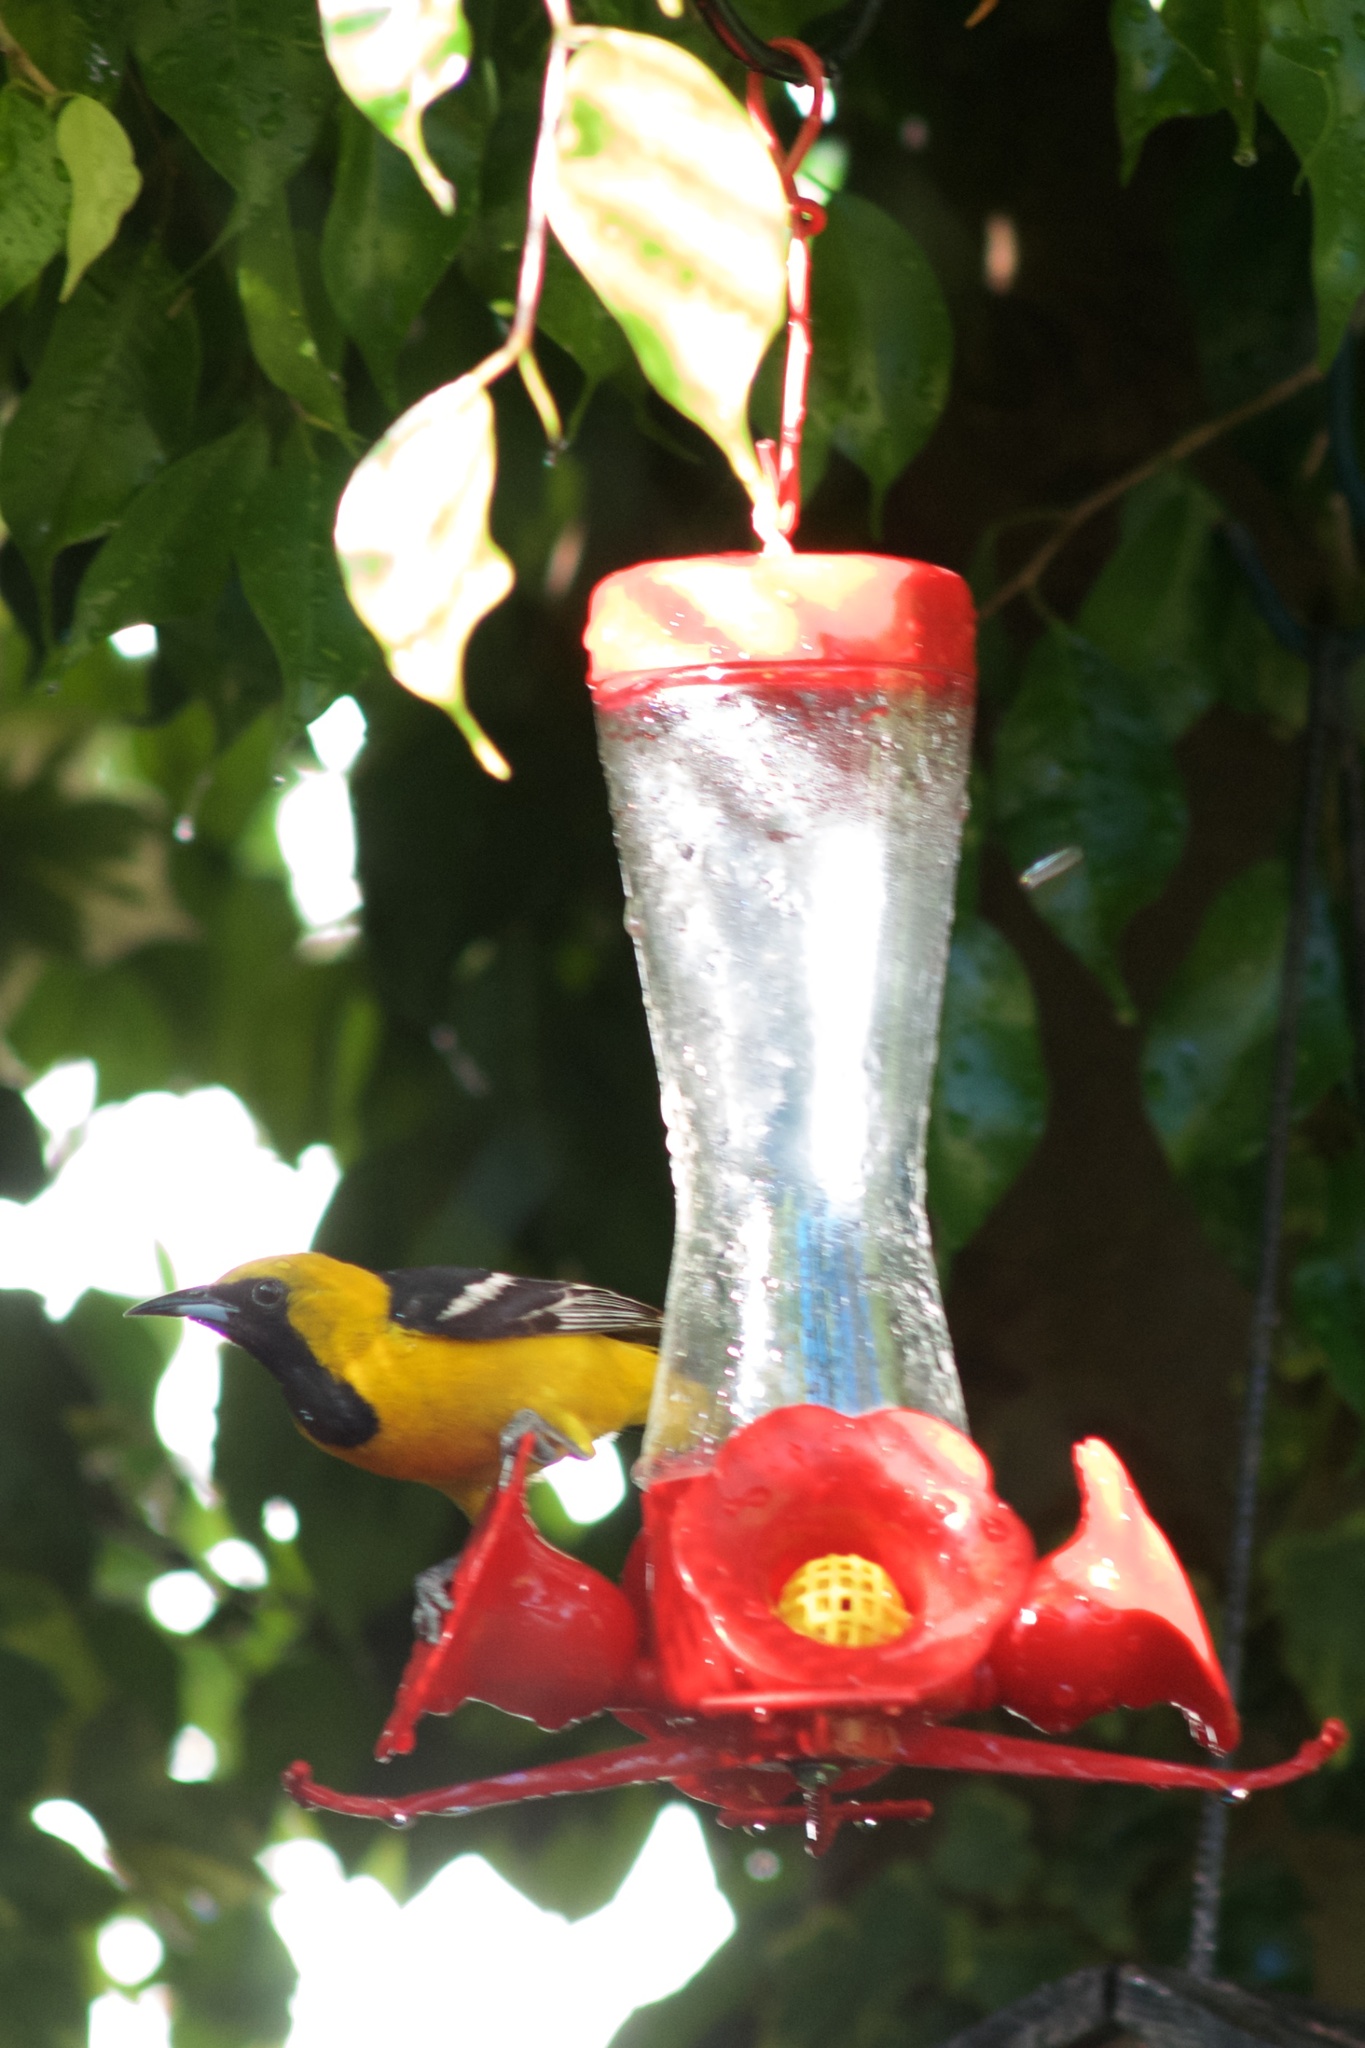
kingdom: Animalia
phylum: Chordata
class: Aves
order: Passeriformes
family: Icteridae
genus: Icterus
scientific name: Icterus cucullatus
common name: Hooded oriole
